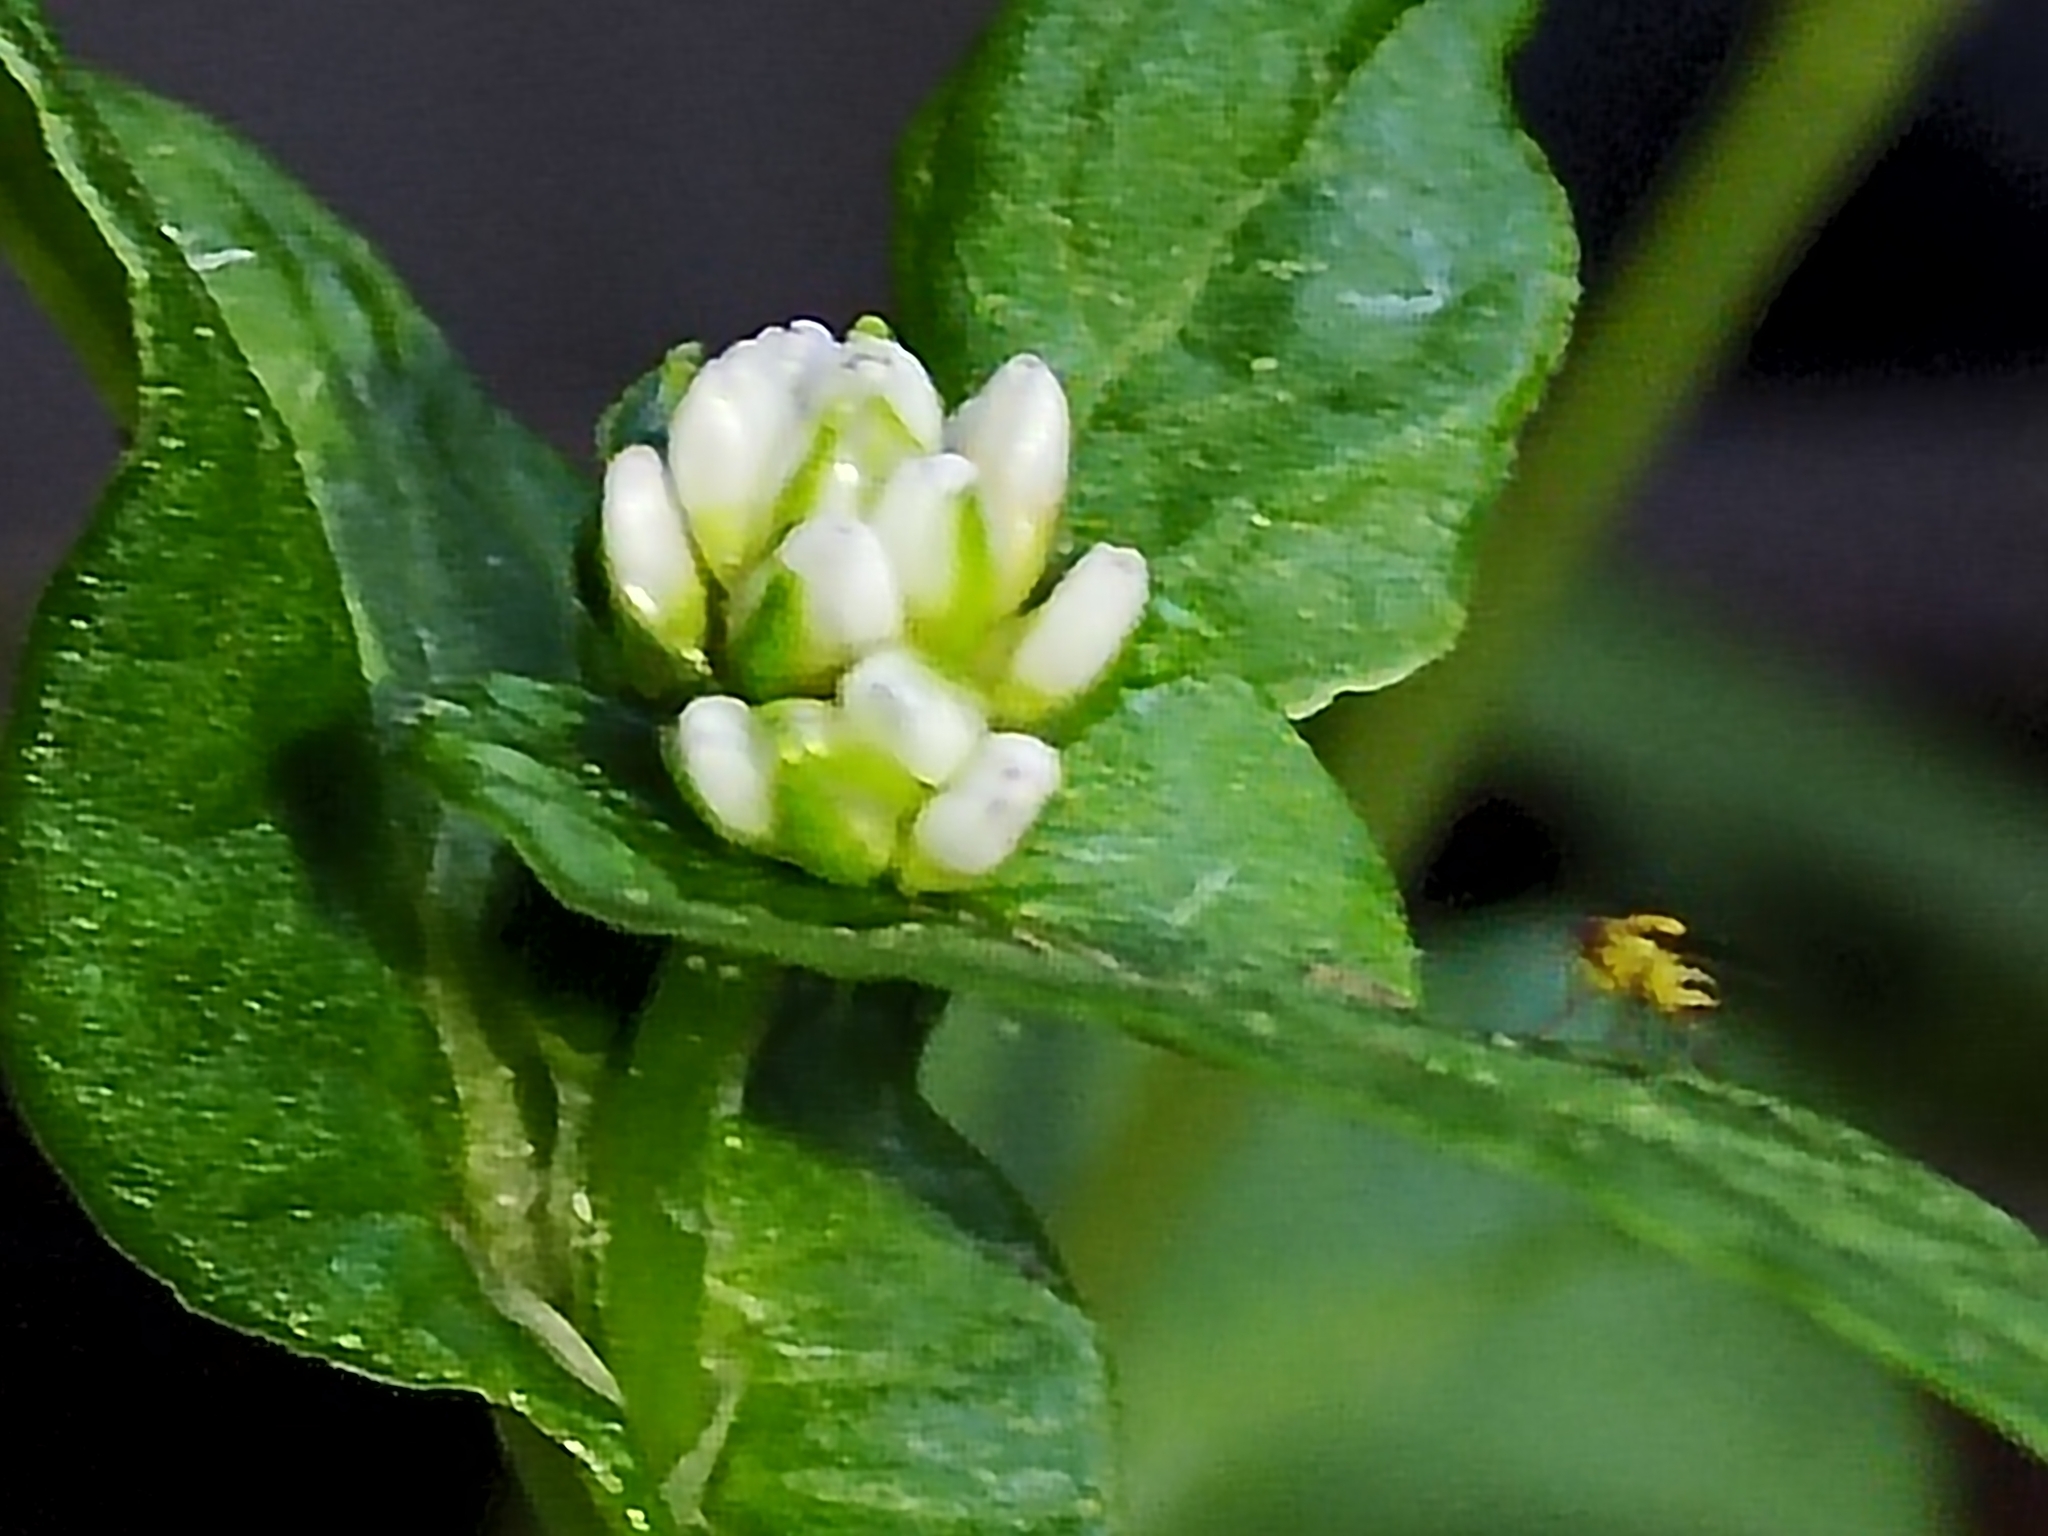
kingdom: Plantae
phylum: Tracheophyta
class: Magnoliopsida
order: Caryophyllales
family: Polygonaceae
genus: Persicaria
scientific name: Persicaria nepalensis
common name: Nepal persicaria
